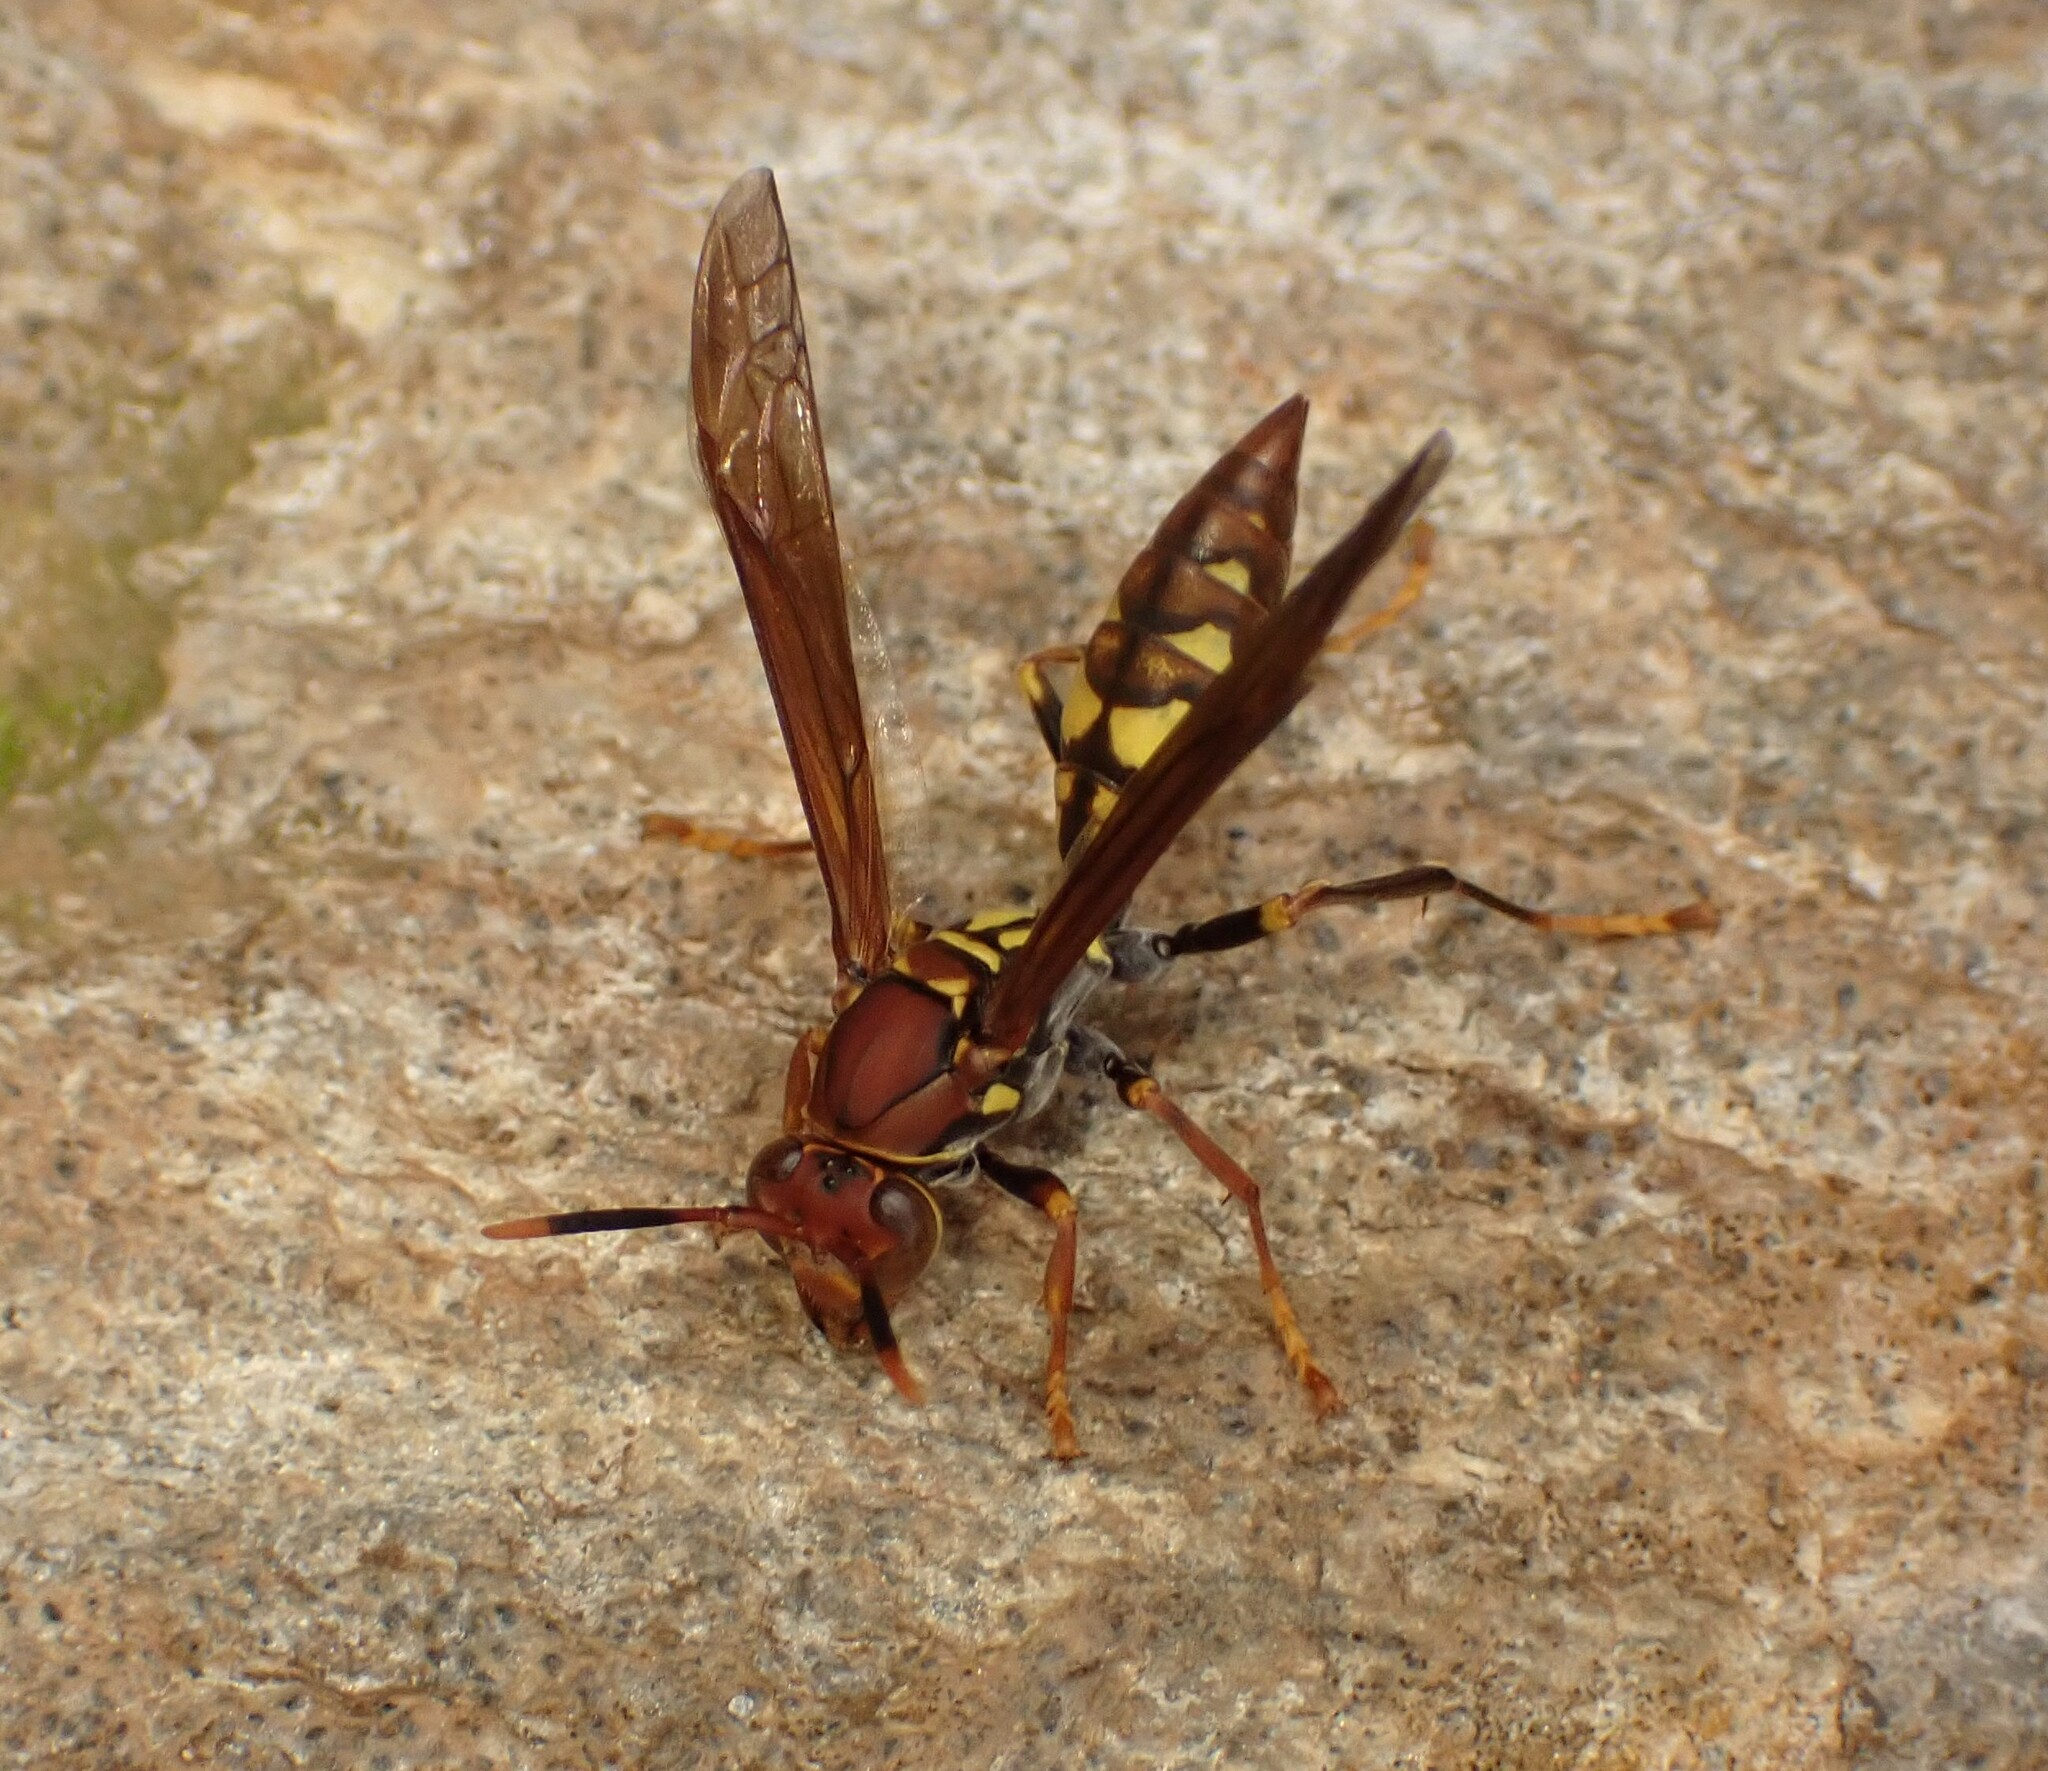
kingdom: Animalia
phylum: Arthropoda
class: Insecta
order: Hymenoptera
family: Eumenidae
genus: Polistes
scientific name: Polistes versicolor
